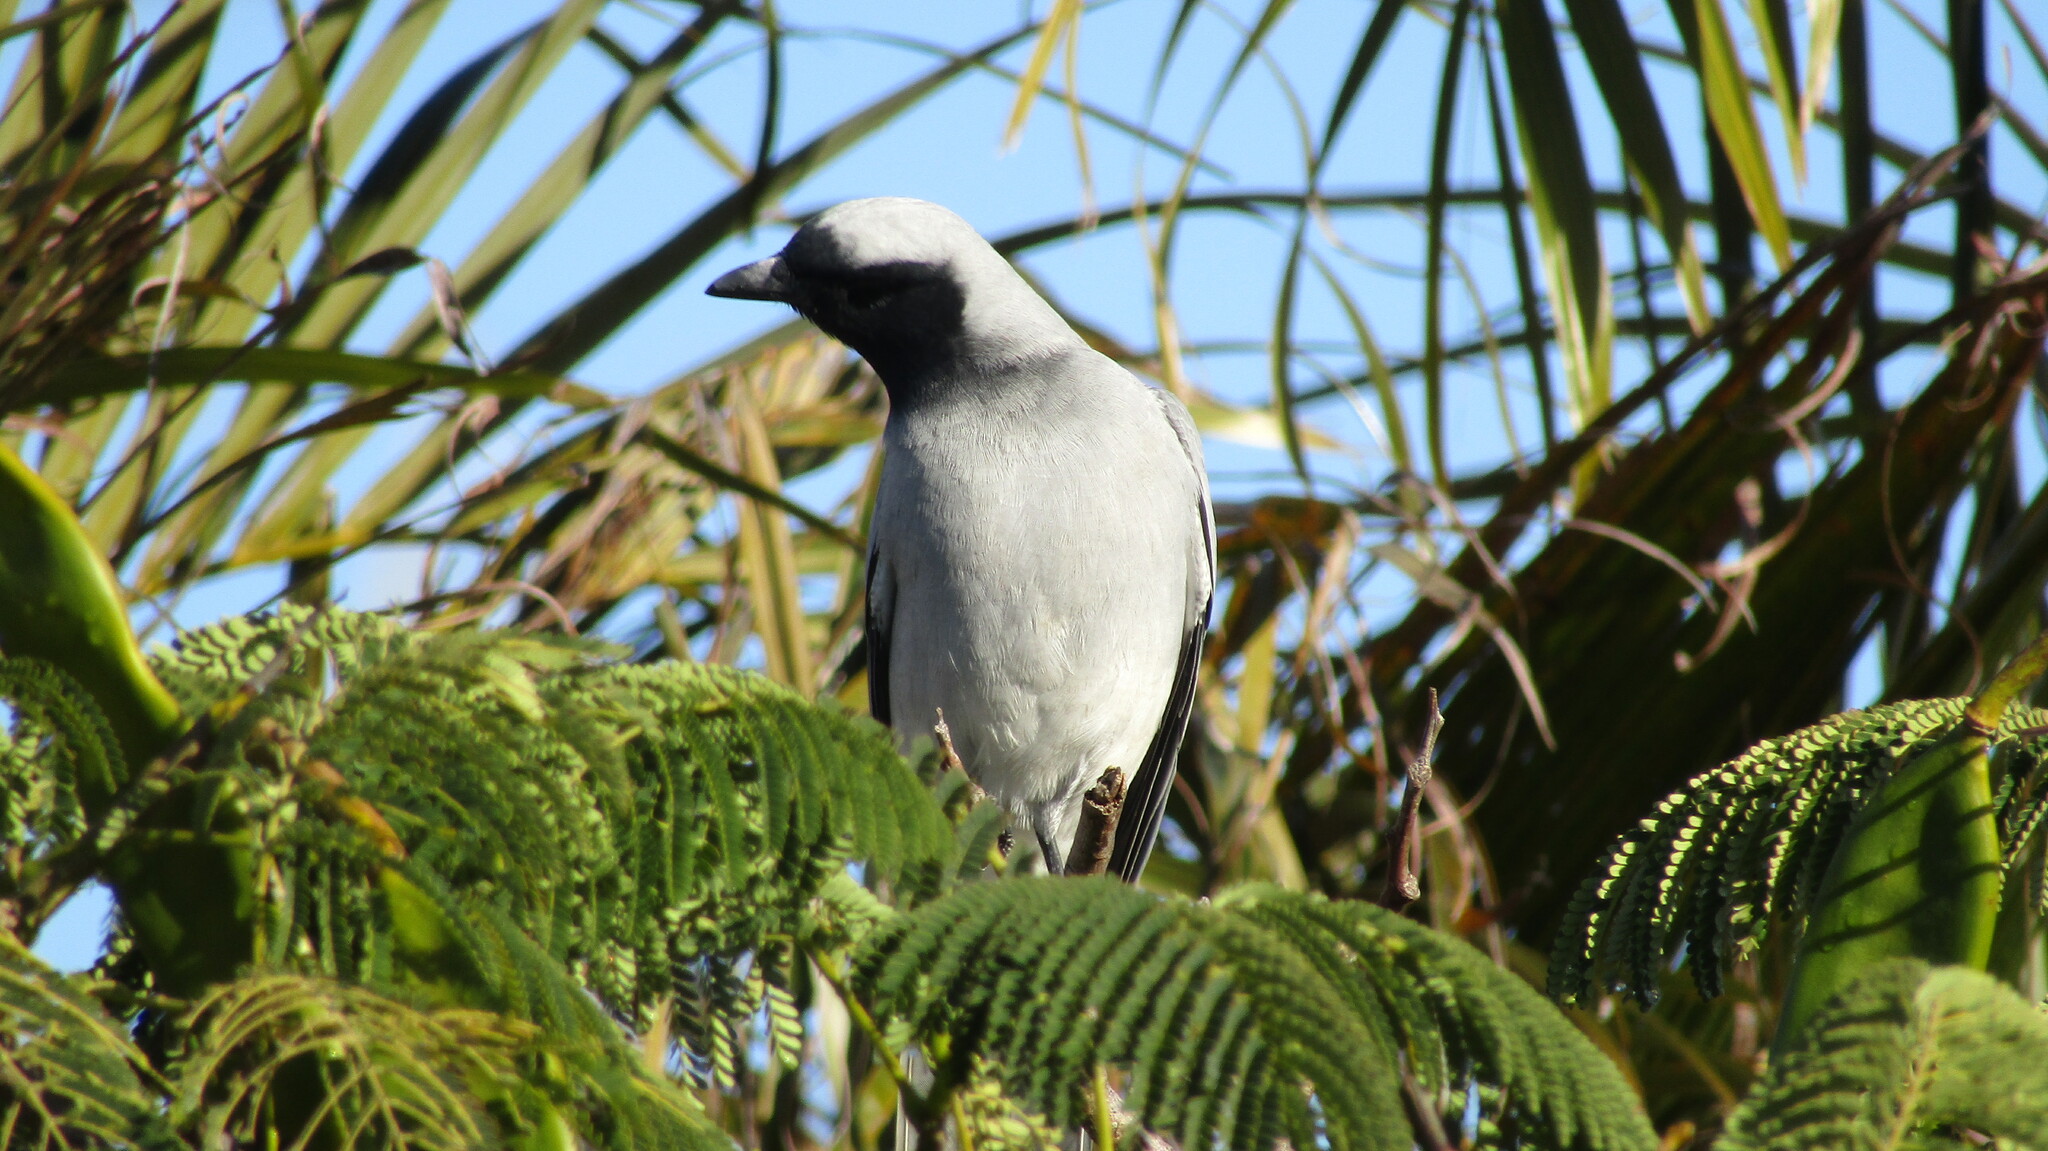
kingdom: Animalia
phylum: Chordata
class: Aves
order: Passeriformes
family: Campephagidae
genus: Coracina
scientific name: Coracina novaehollandiae
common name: Black-faced cuckooshrike
